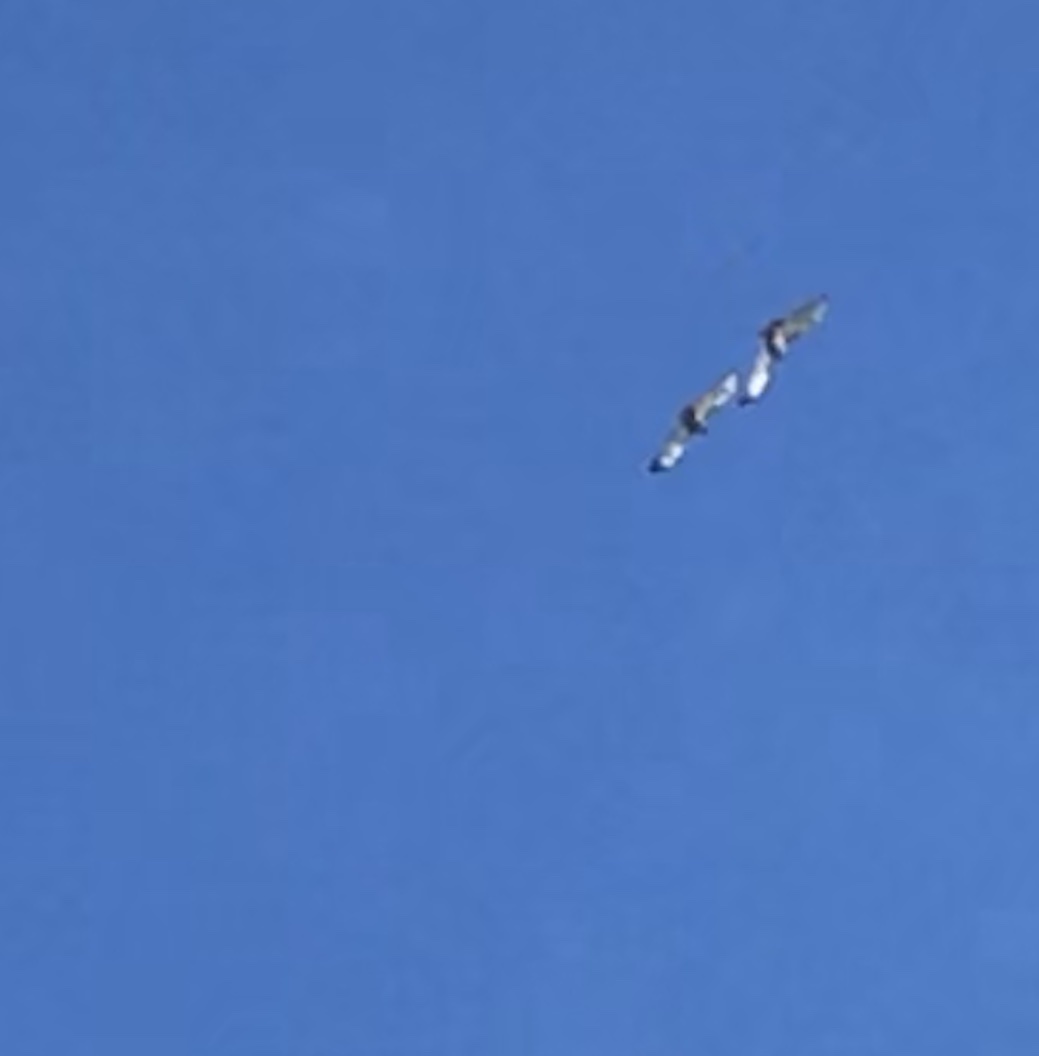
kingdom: Animalia
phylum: Chordata
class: Aves
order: Accipitriformes
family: Accipitridae
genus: Buteo
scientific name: Buteo jamaicensis
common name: Red-tailed hawk
